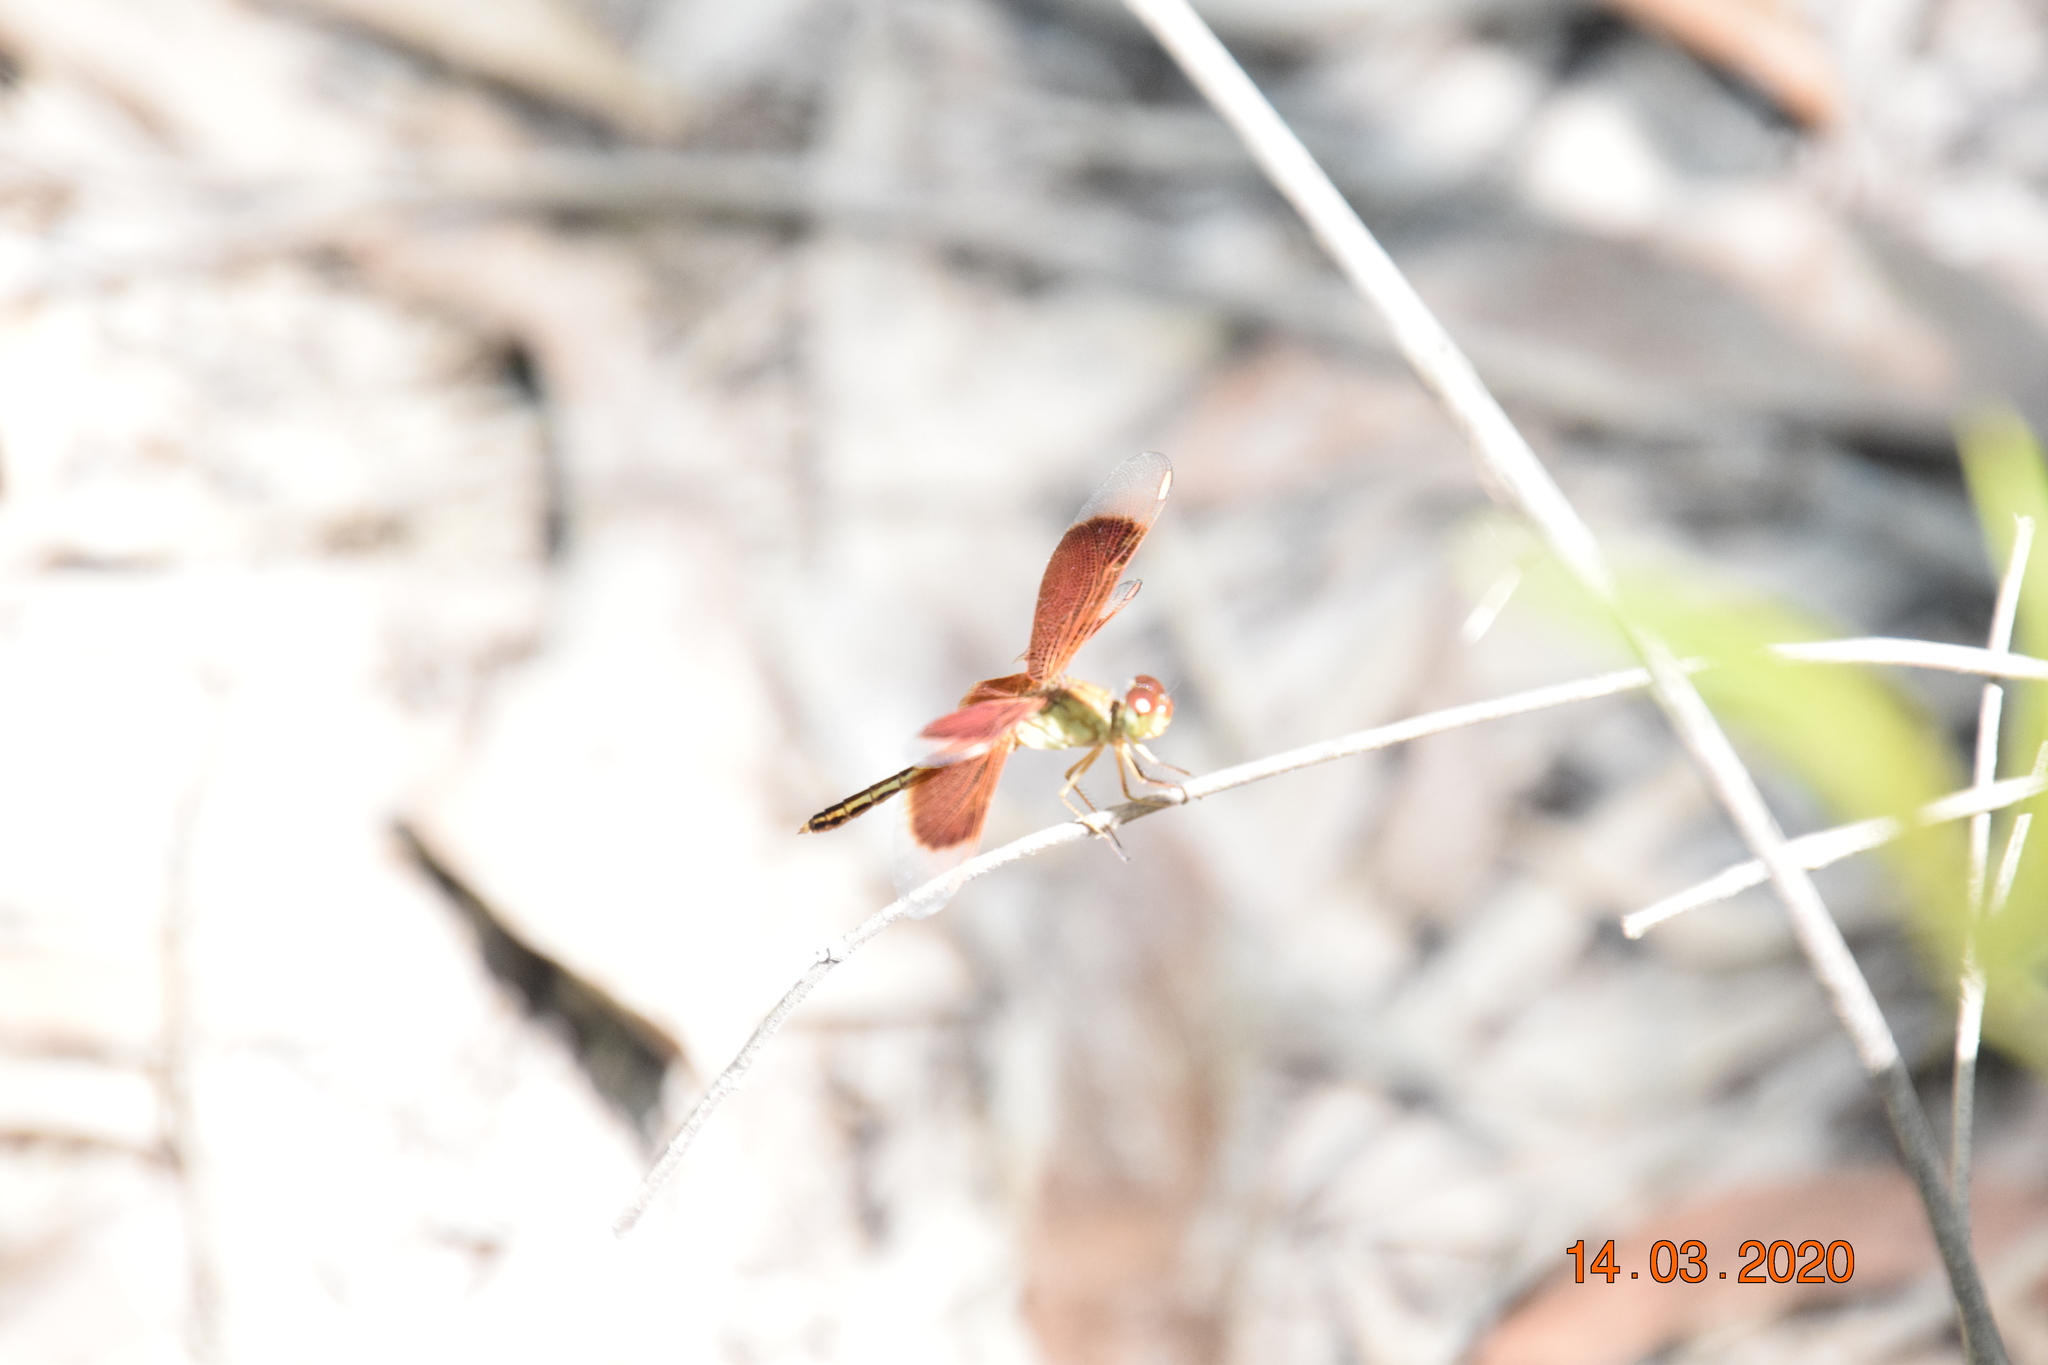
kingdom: Animalia
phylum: Arthropoda
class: Insecta
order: Odonata
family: Libellulidae
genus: Neurothemis
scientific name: Neurothemis stigmatizans
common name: Painted grasshawk
